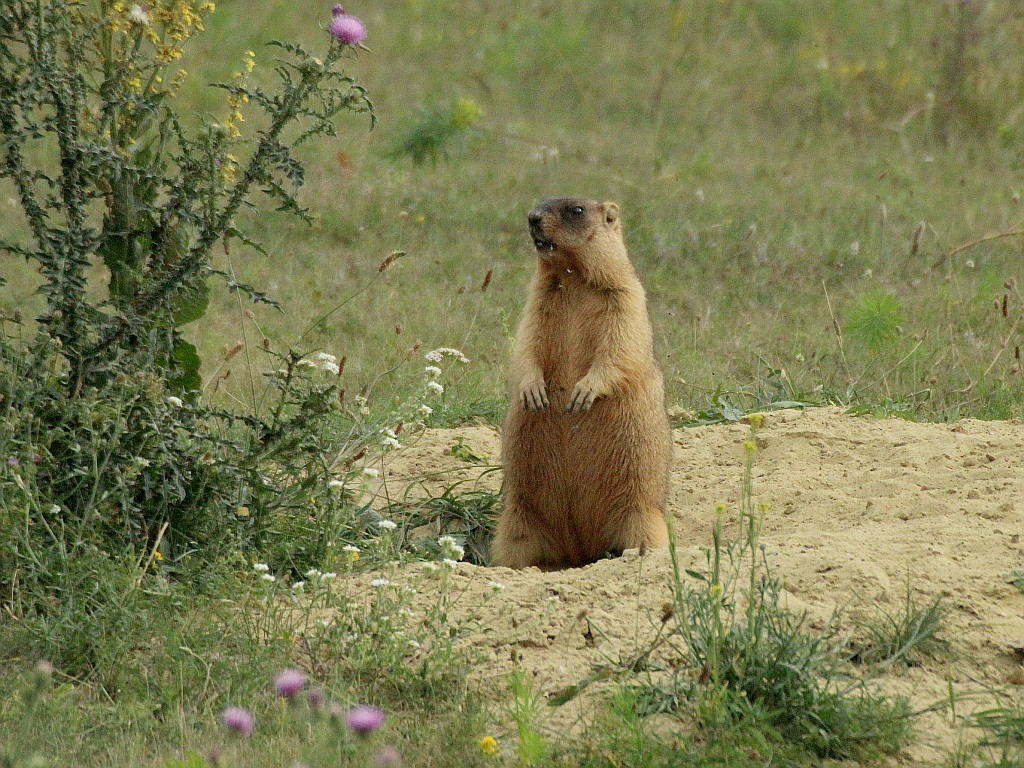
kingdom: Animalia
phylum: Chordata
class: Mammalia
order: Rodentia
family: Sciuridae
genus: Marmota
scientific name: Marmota bobak
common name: Bobak marmot
